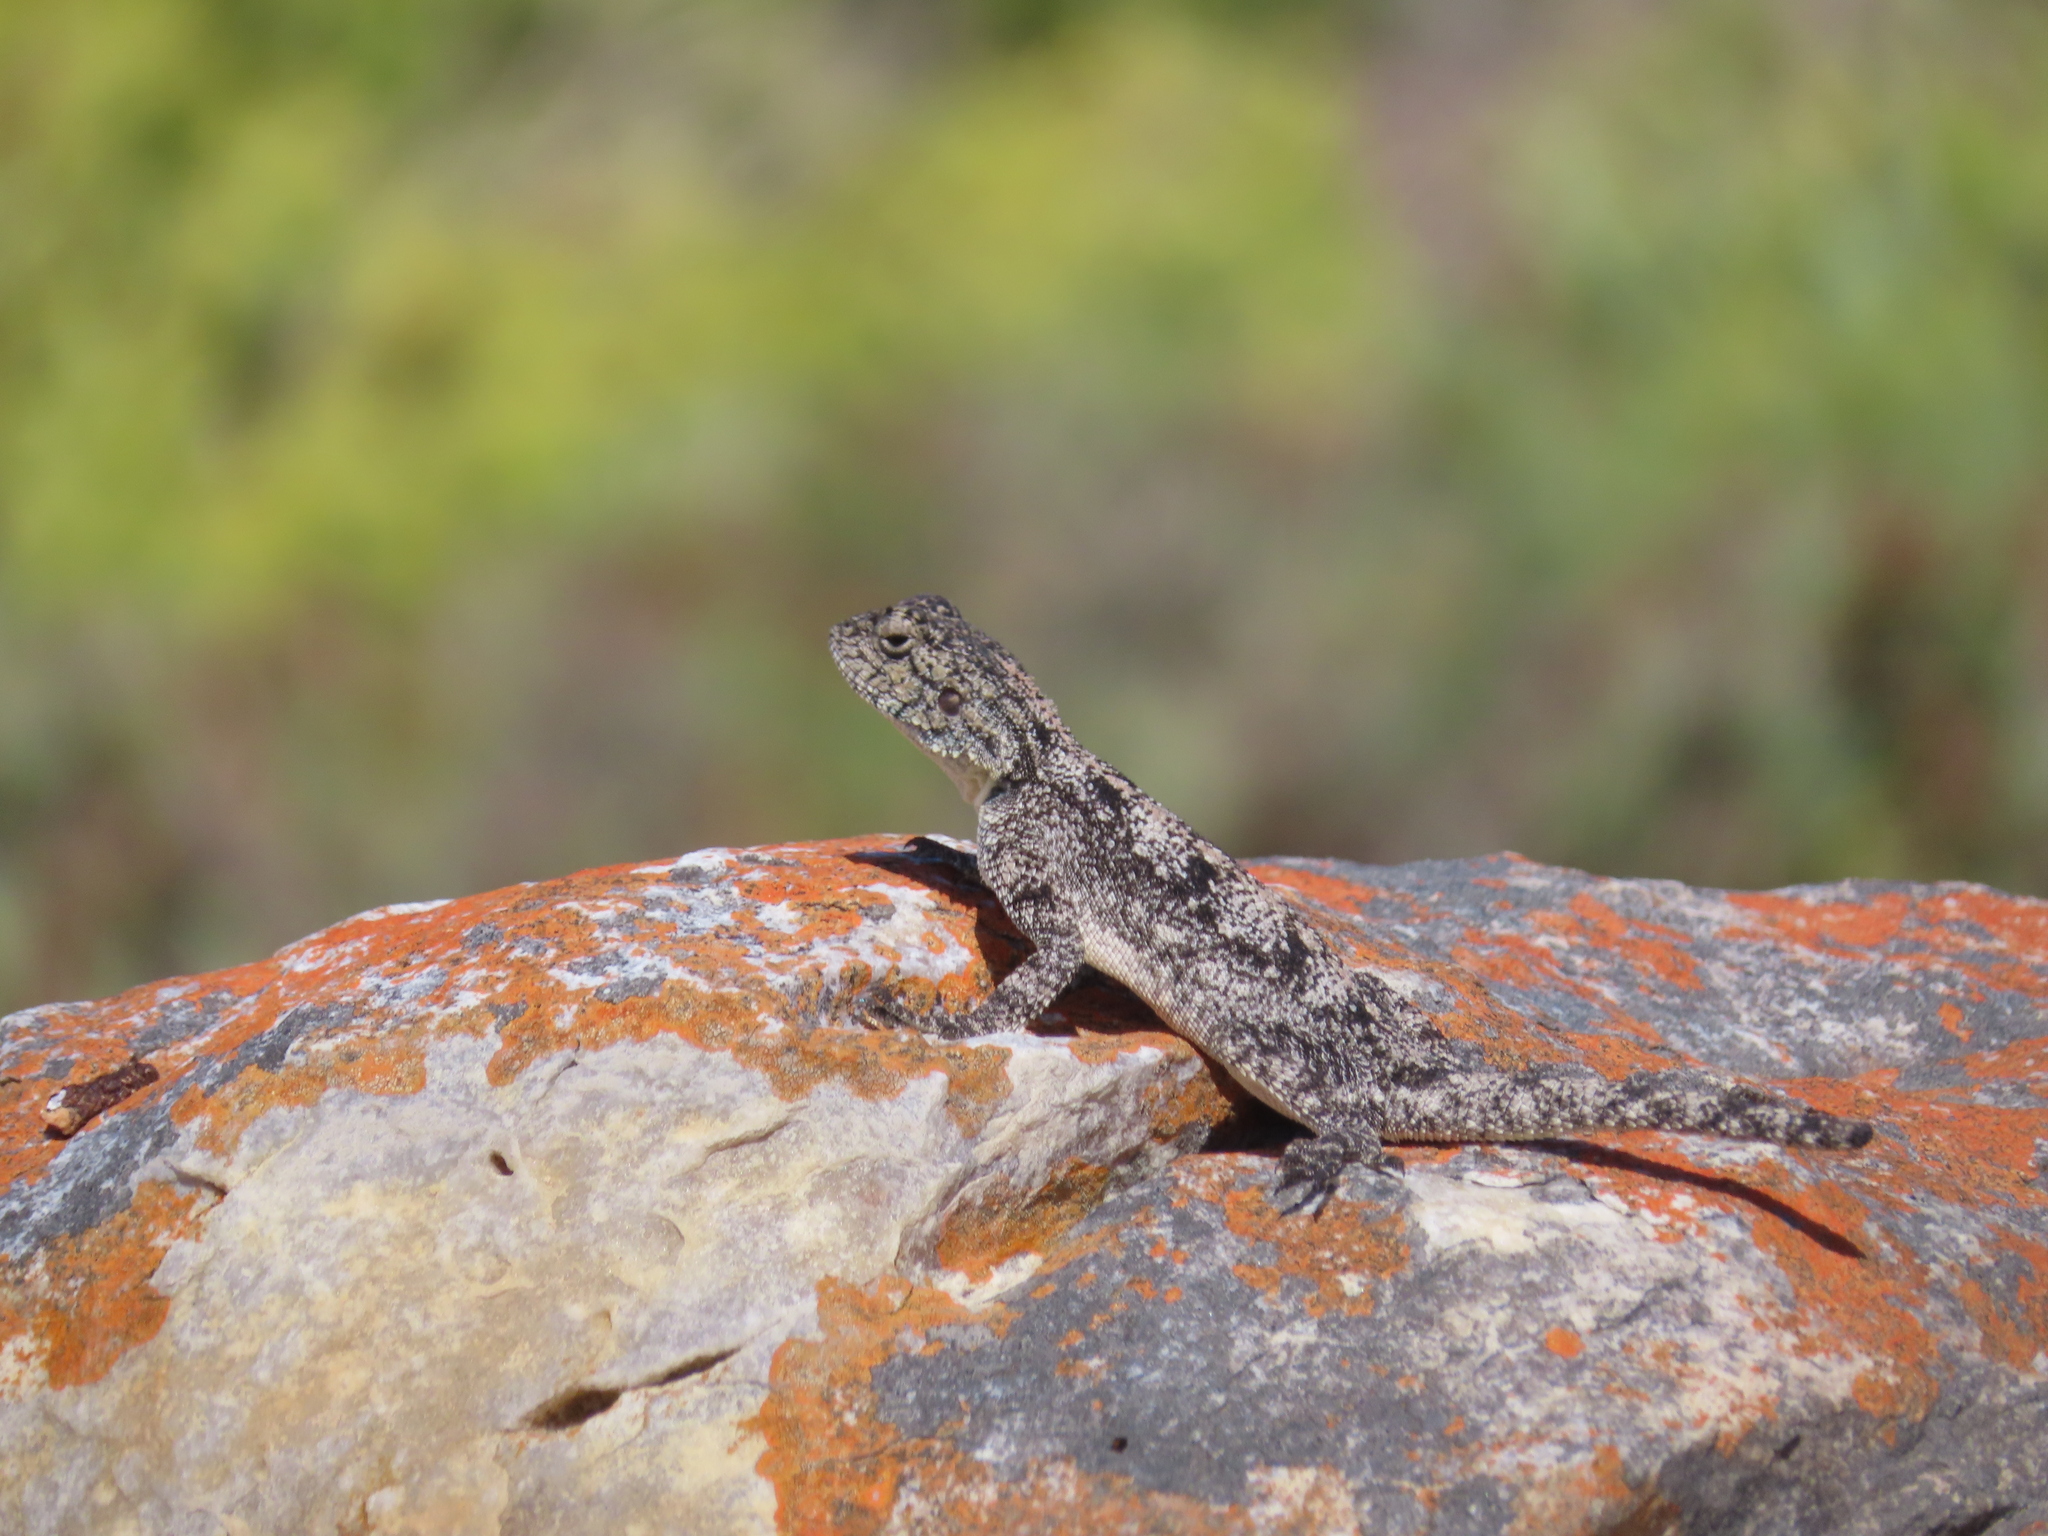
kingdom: Animalia
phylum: Chordata
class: Squamata
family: Agamidae
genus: Agama
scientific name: Agama atra
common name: Southern african rock agama
